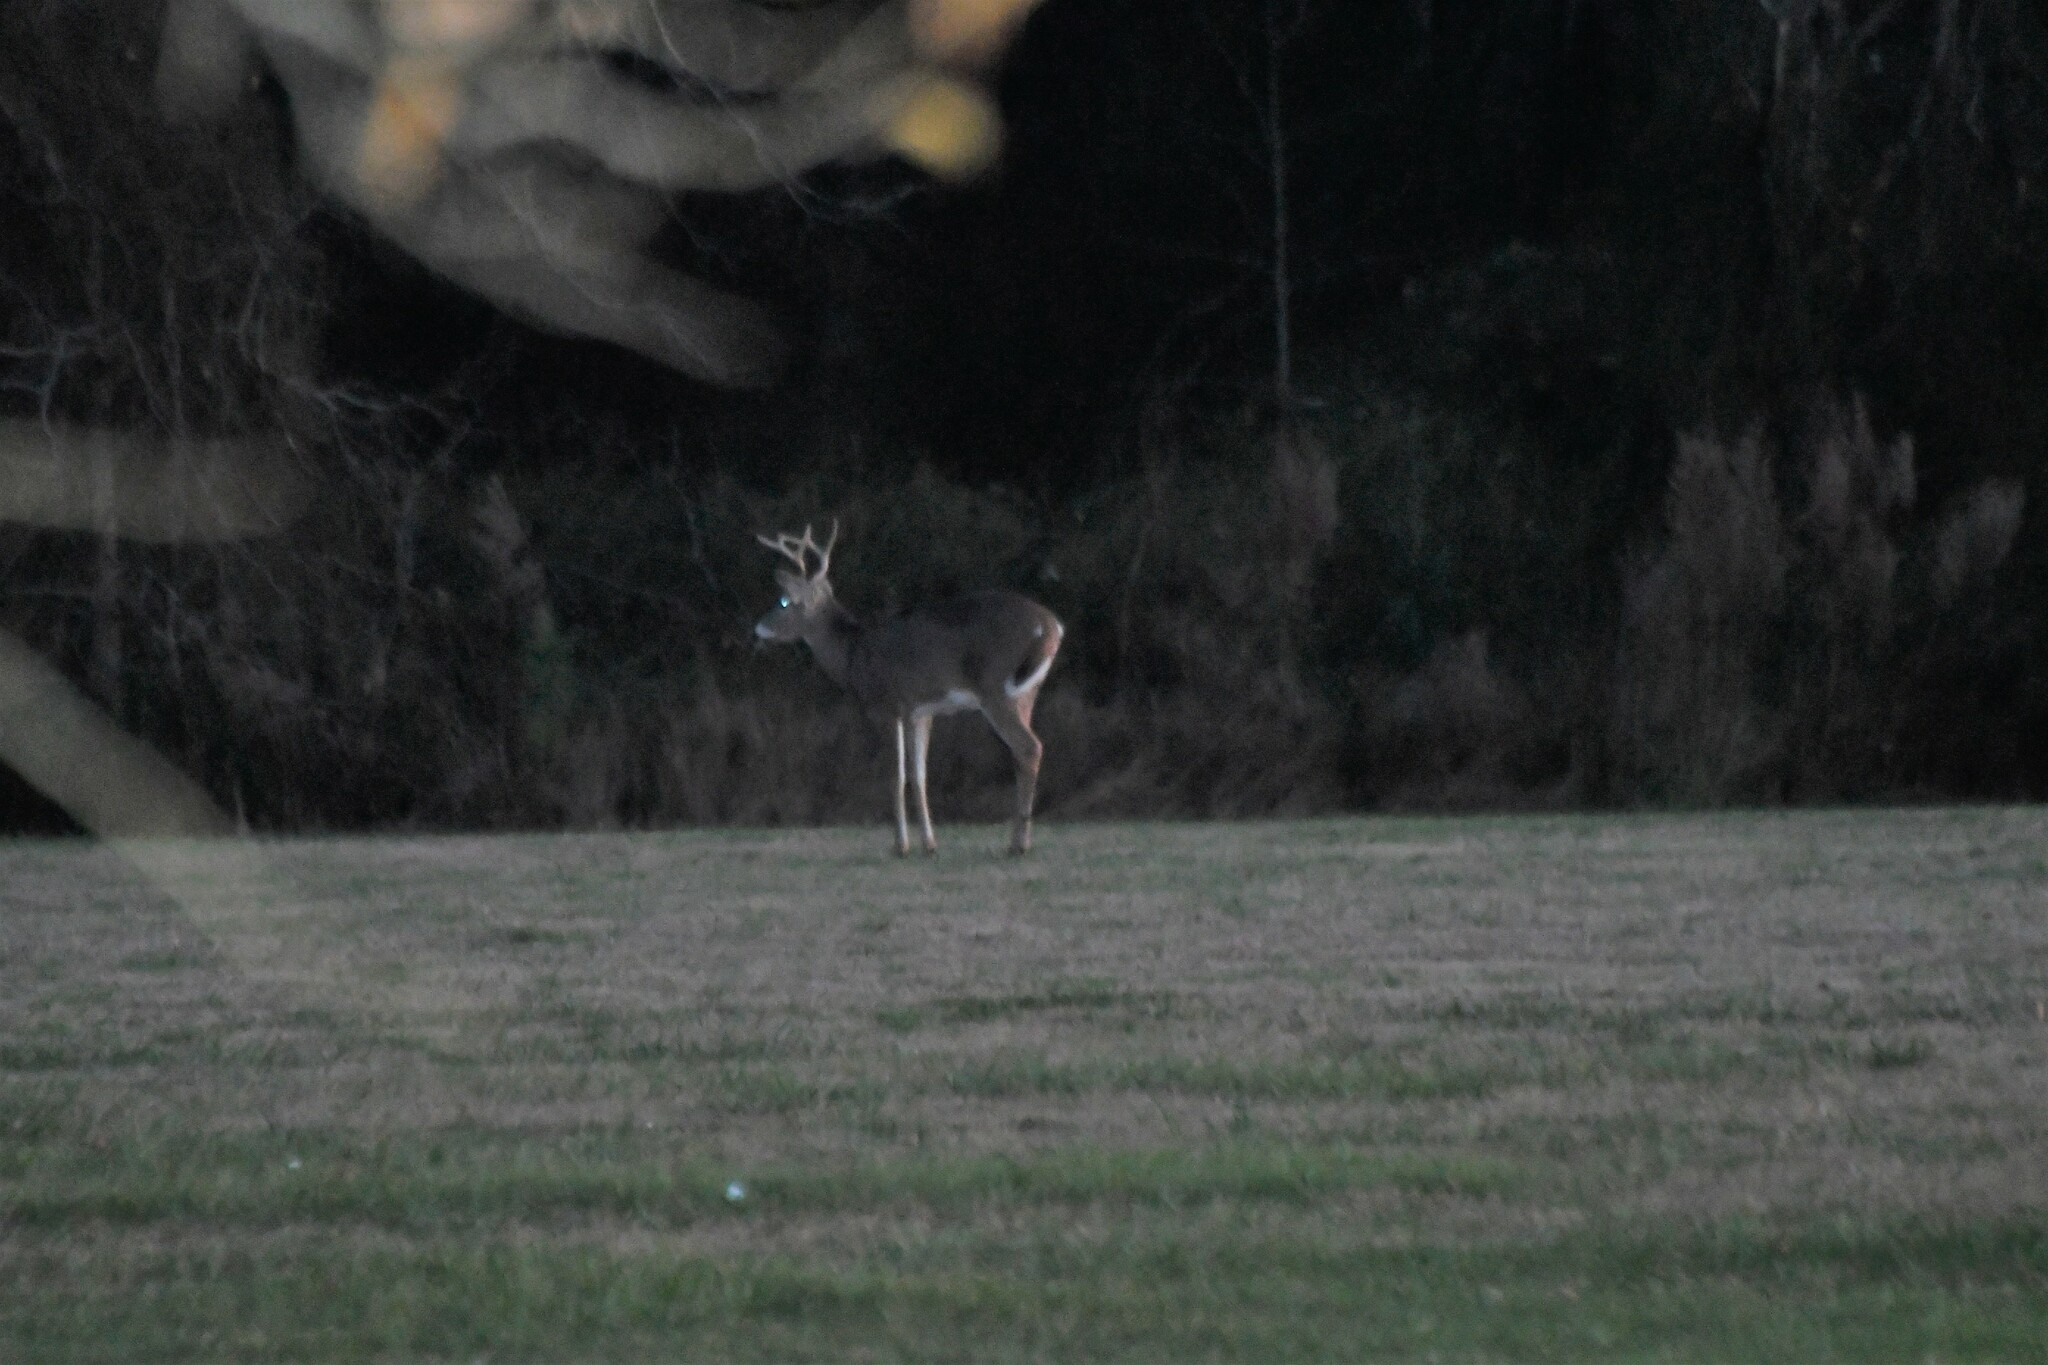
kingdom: Animalia
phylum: Chordata
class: Mammalia
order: Artiodactyla
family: Cervidae
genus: Odocoileus
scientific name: Odocoileus virginianus
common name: White-tailed deer
